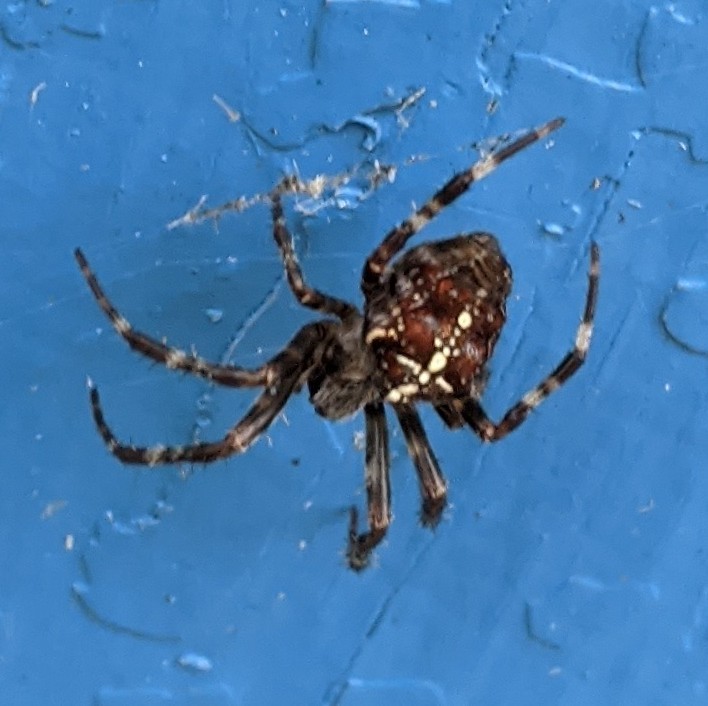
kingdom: Animalia
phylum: Arthropoda
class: Arachnida
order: Araneae
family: Araneidae
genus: Araneus
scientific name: Araneus diadematus
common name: Cross orbweaver
